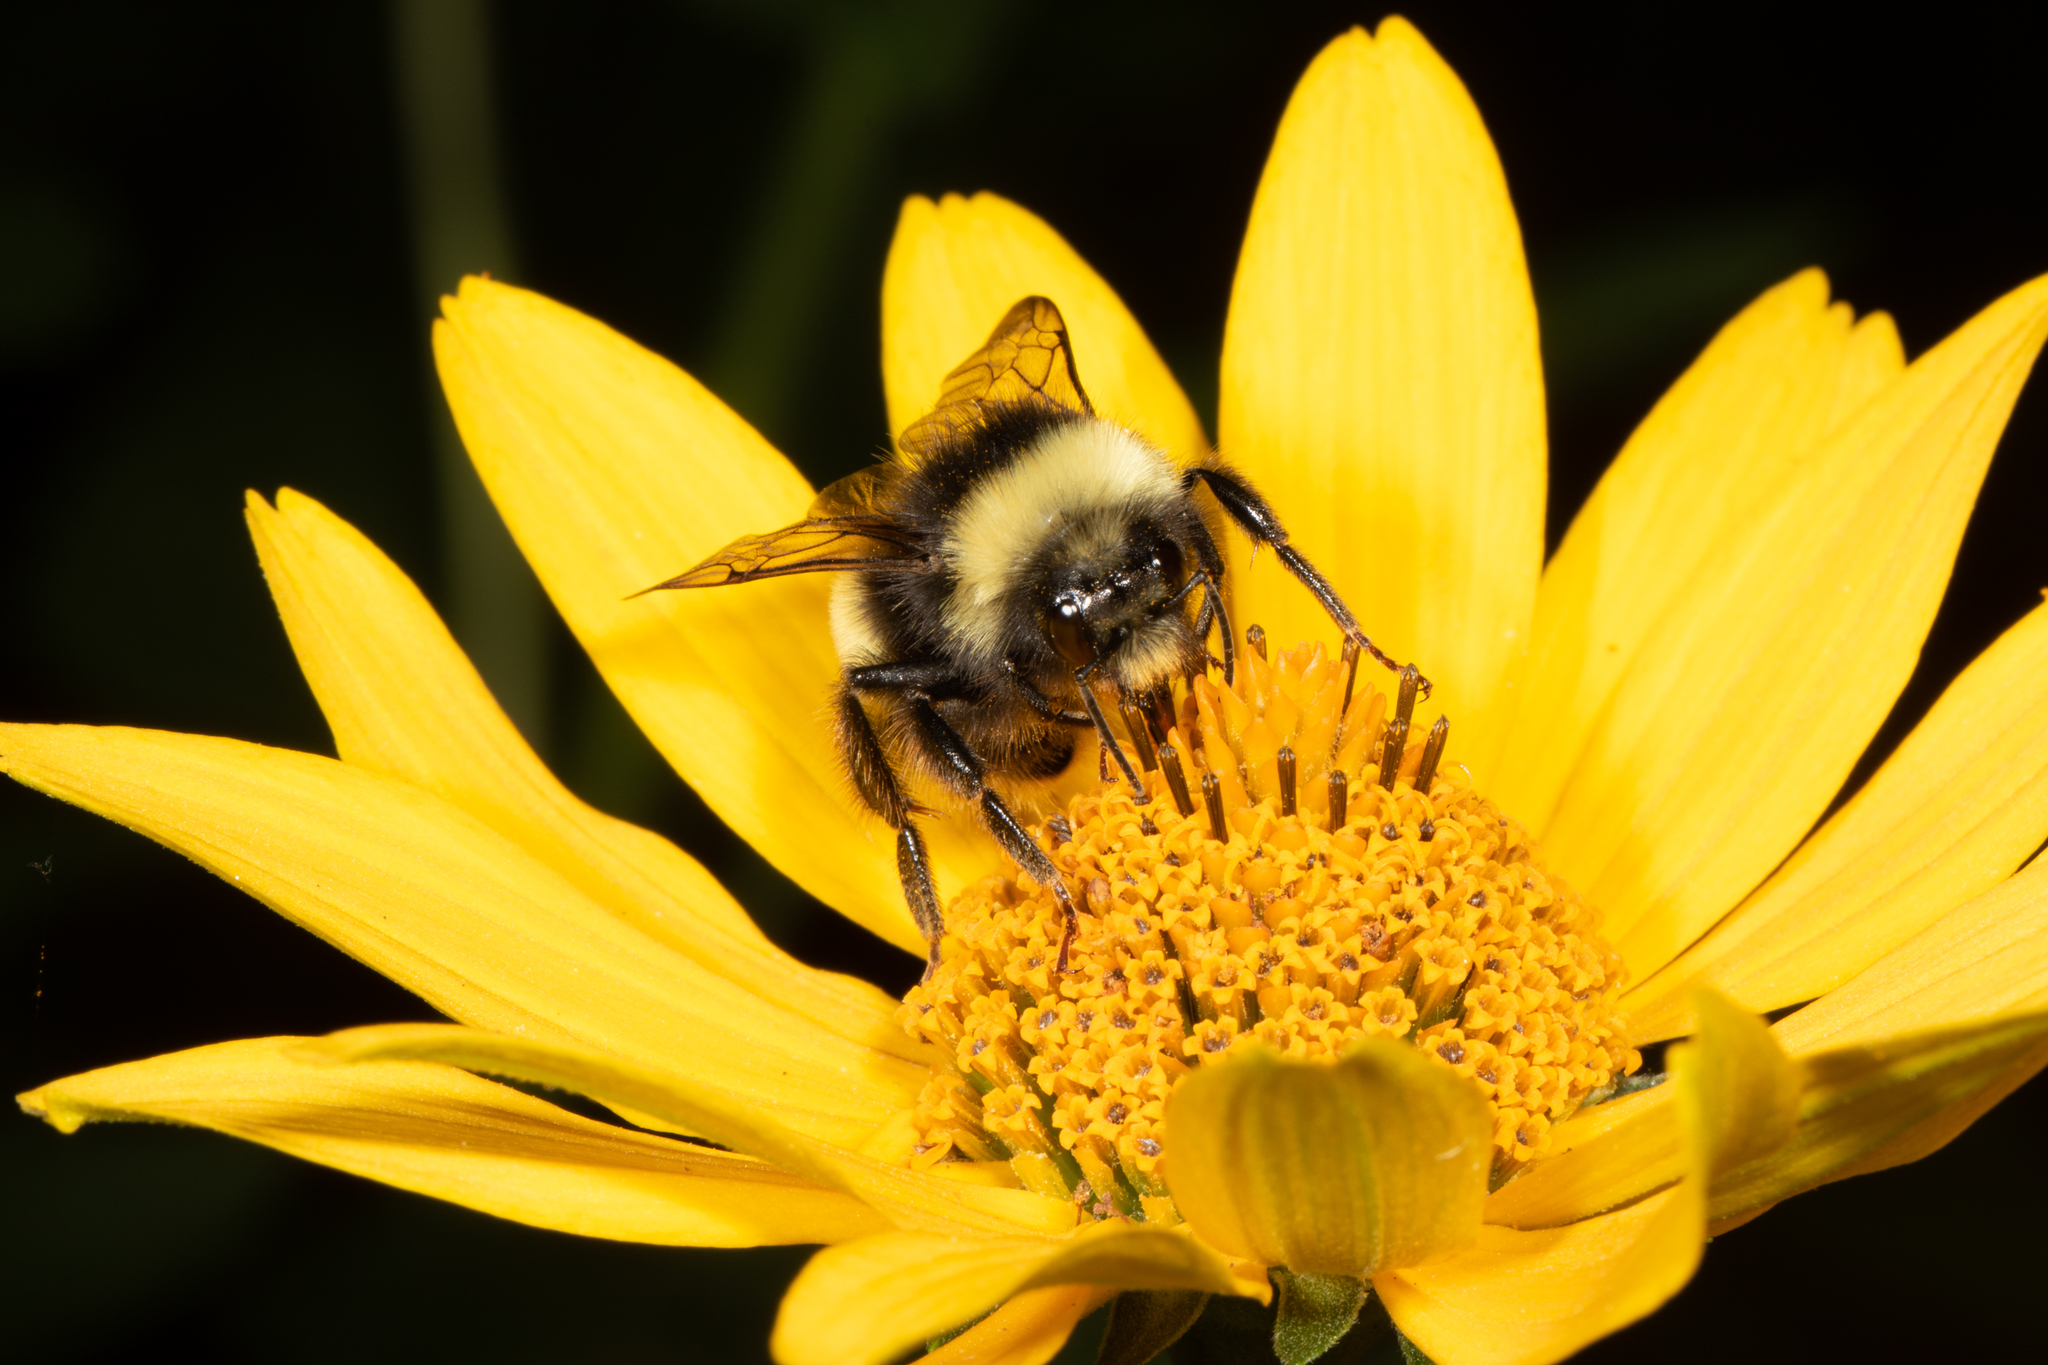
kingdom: Animalia
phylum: Arthropoda
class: Insecta
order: Hymenoptera
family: Apidae
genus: Bombus
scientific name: Bombus terricola
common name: Yellow-banded bumble bee
